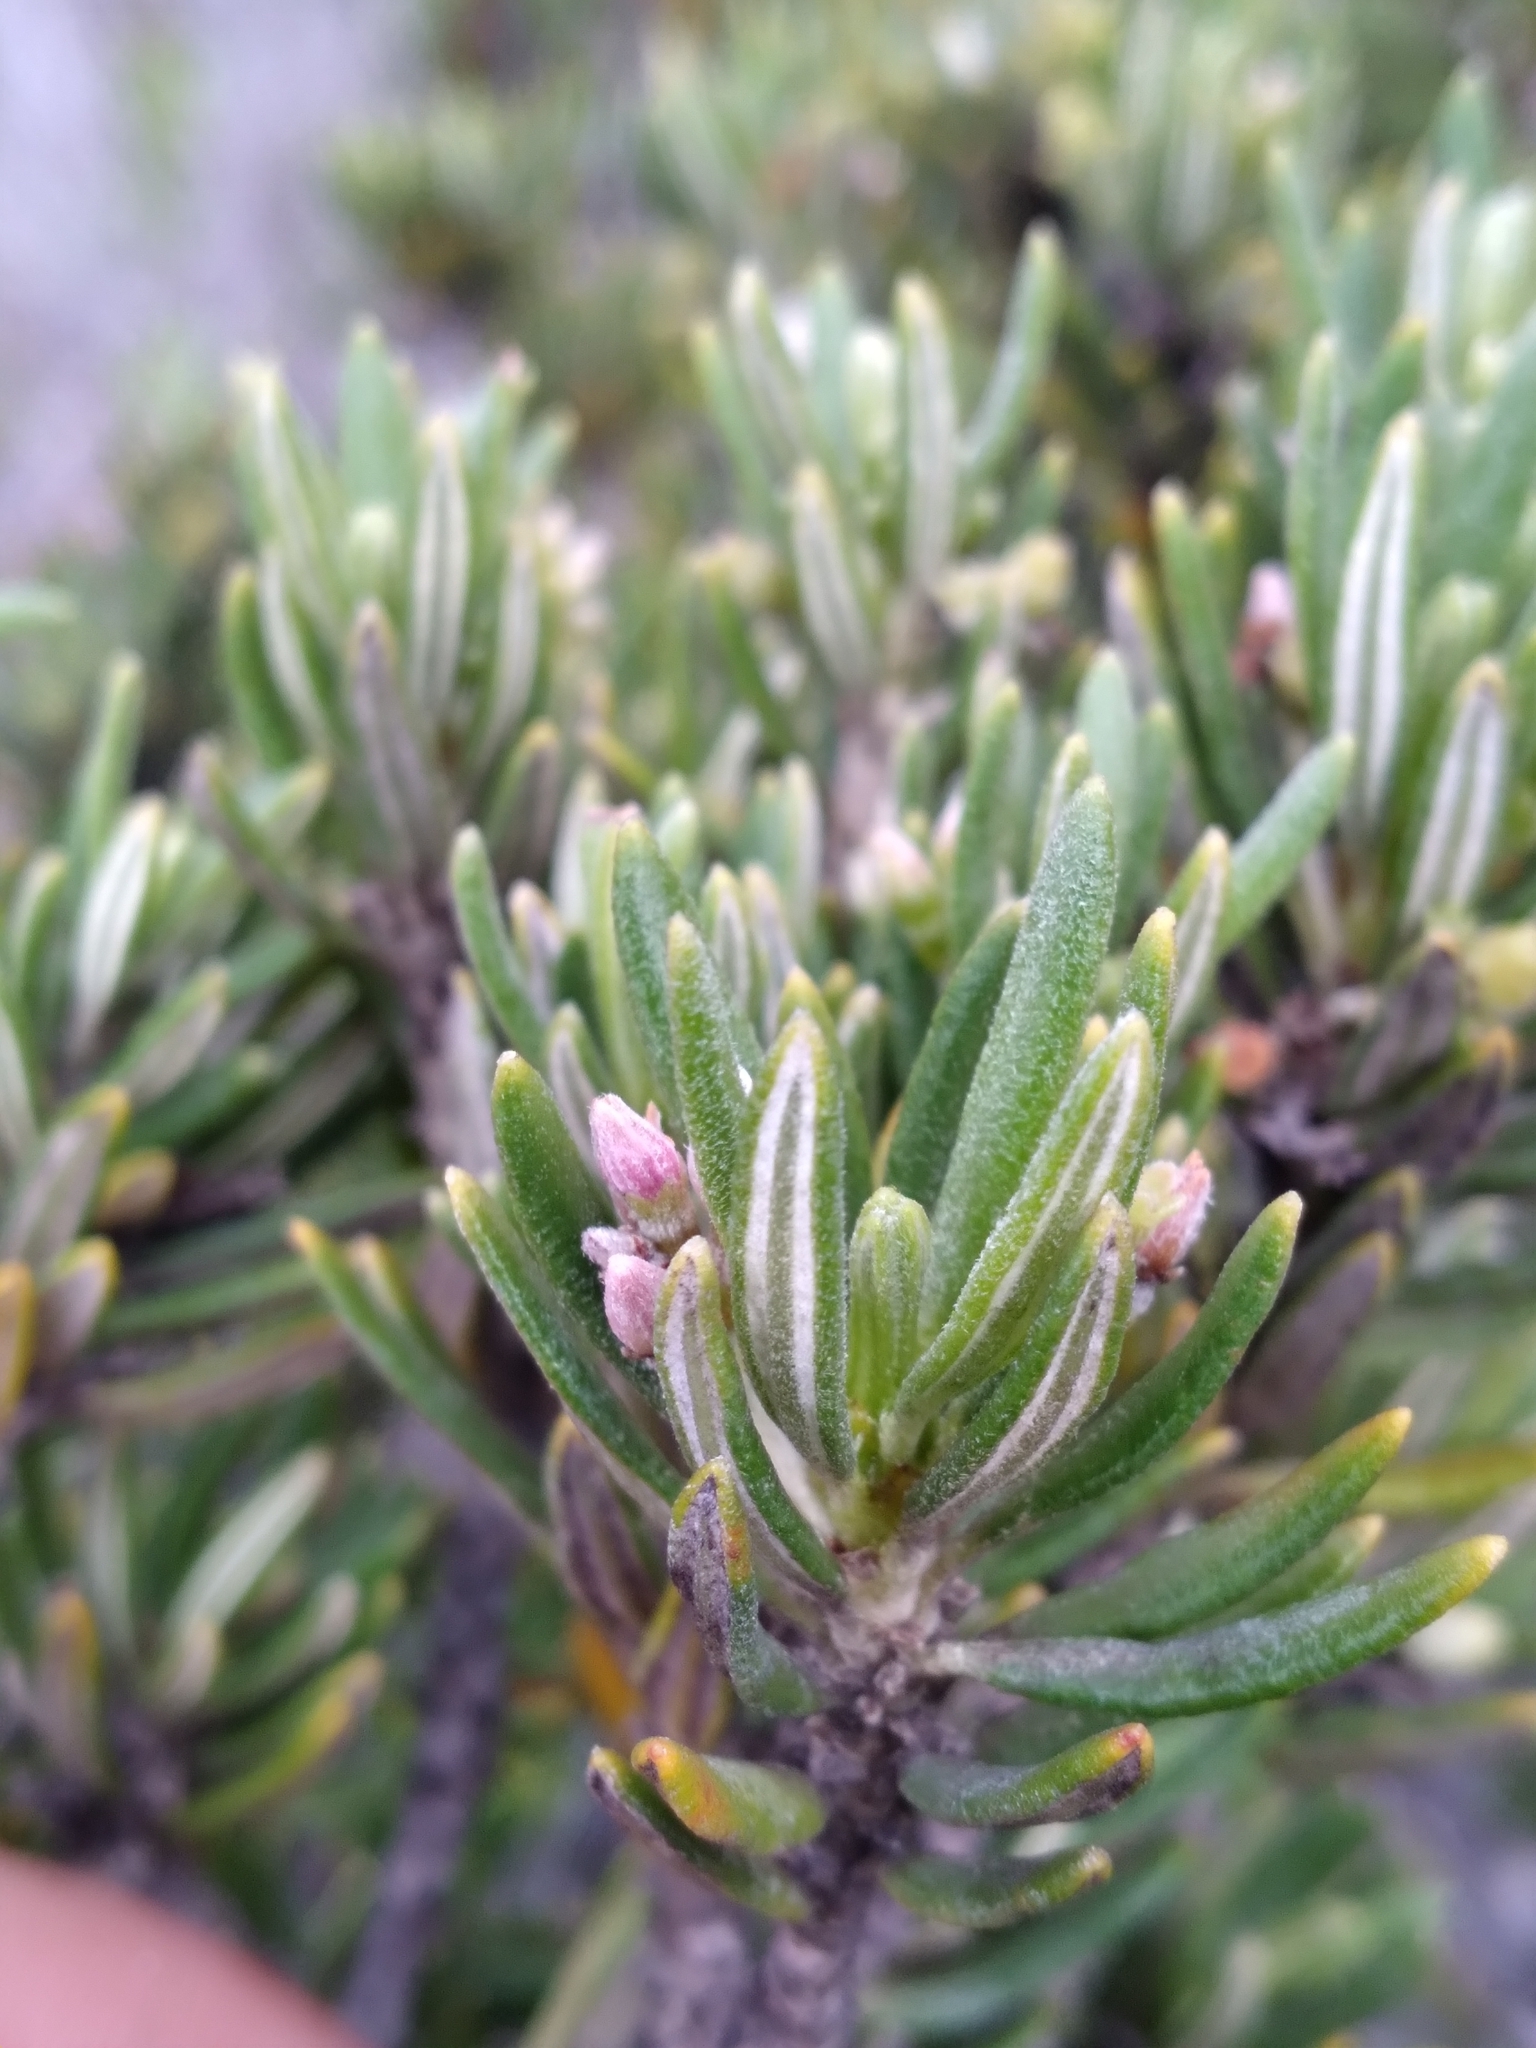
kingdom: Plantae
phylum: Tracheophyta
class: Magnoliopsida
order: Gentianales
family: Rubiaceae
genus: Strumpfia
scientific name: Strumpfia maritima
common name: Pride-of-big pine
